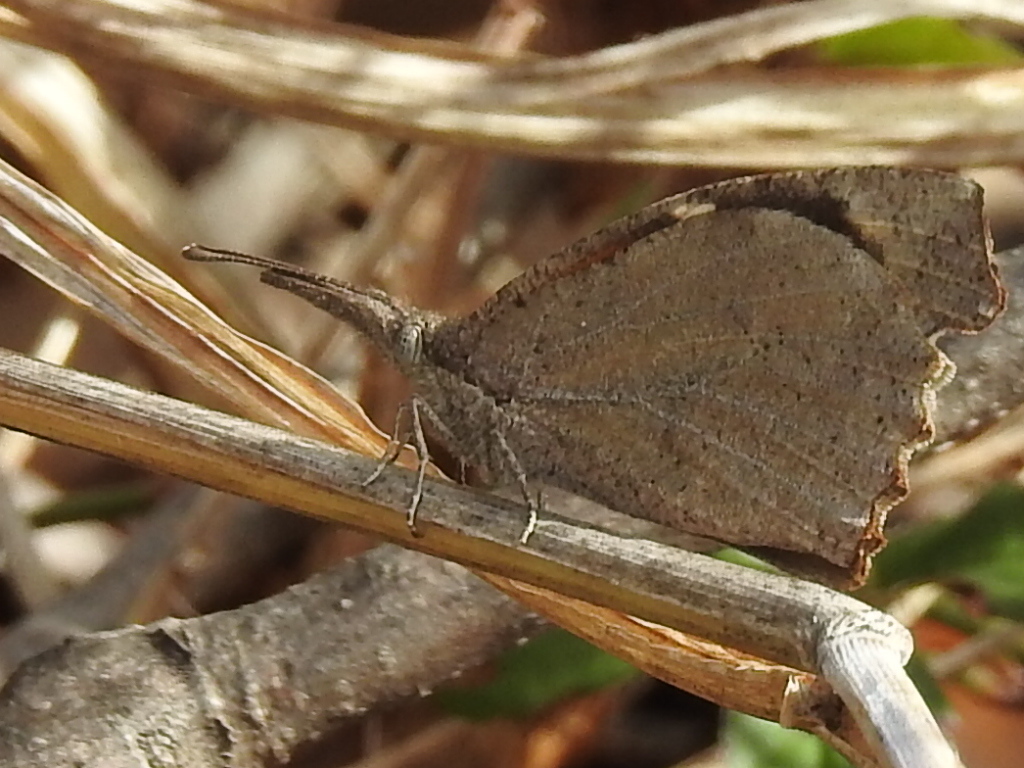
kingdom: Animalia
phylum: Arthropoda
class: Insecta
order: Lepidoptera
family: Nymphalidae
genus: Libytheana
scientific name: Libytheana carinenta
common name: American snout
